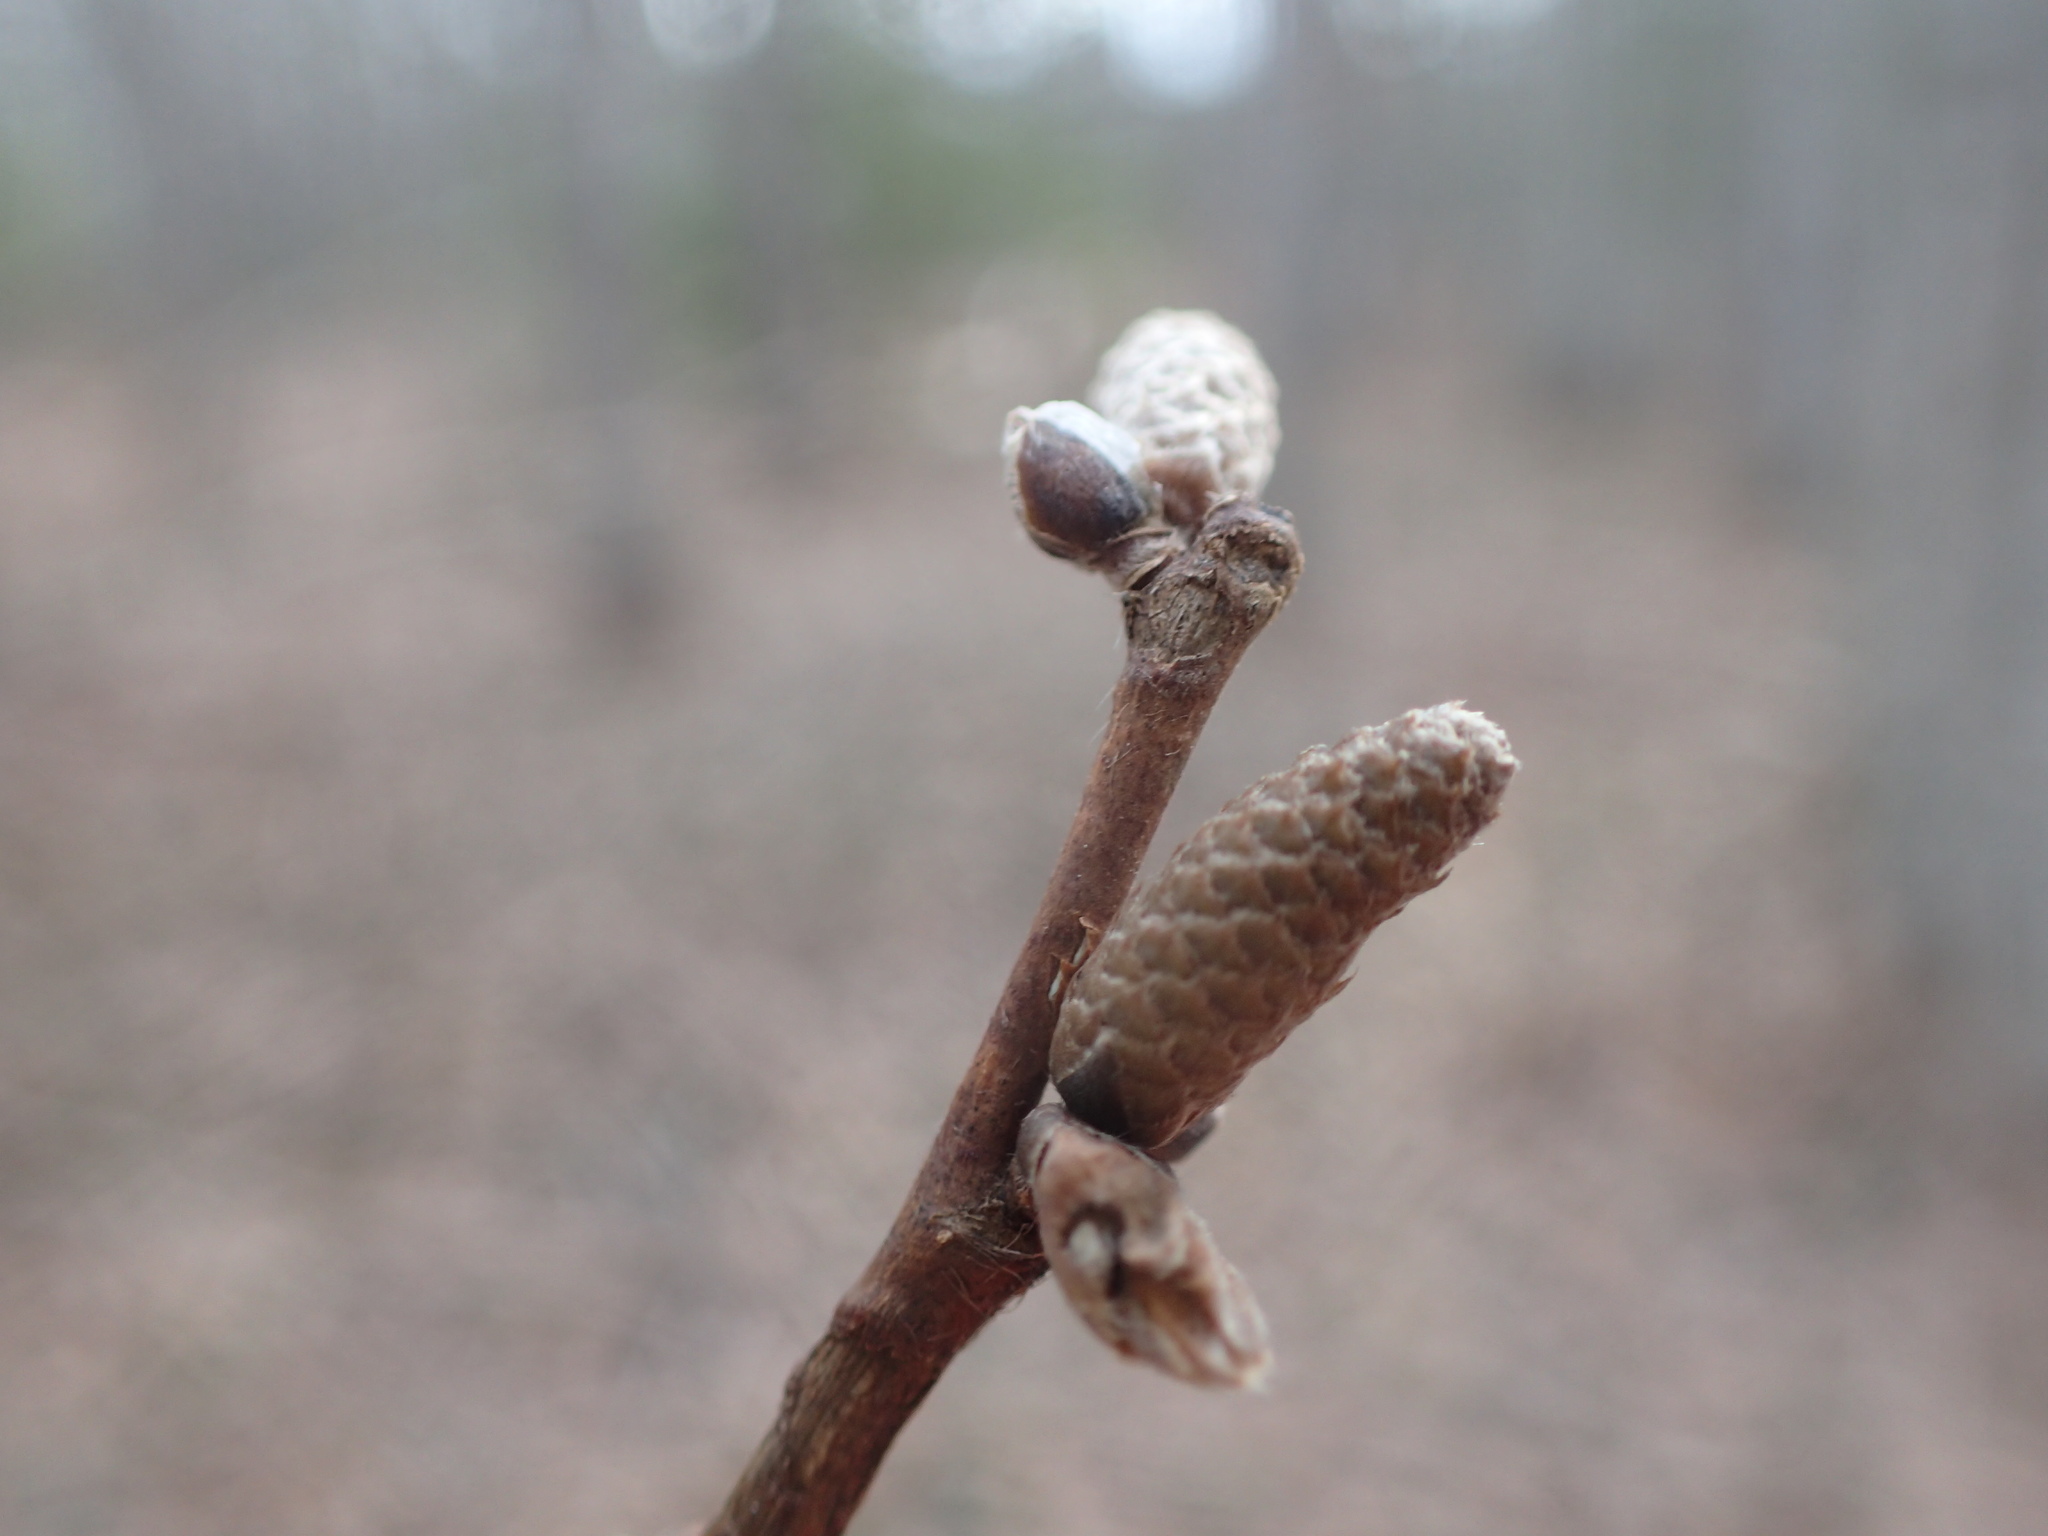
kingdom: Plantae
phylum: Tracheophyta
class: Magnoliopsida
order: Fagales
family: Betulaceae
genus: Corylus
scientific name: Corylus cornuta
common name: Beaked hazel
